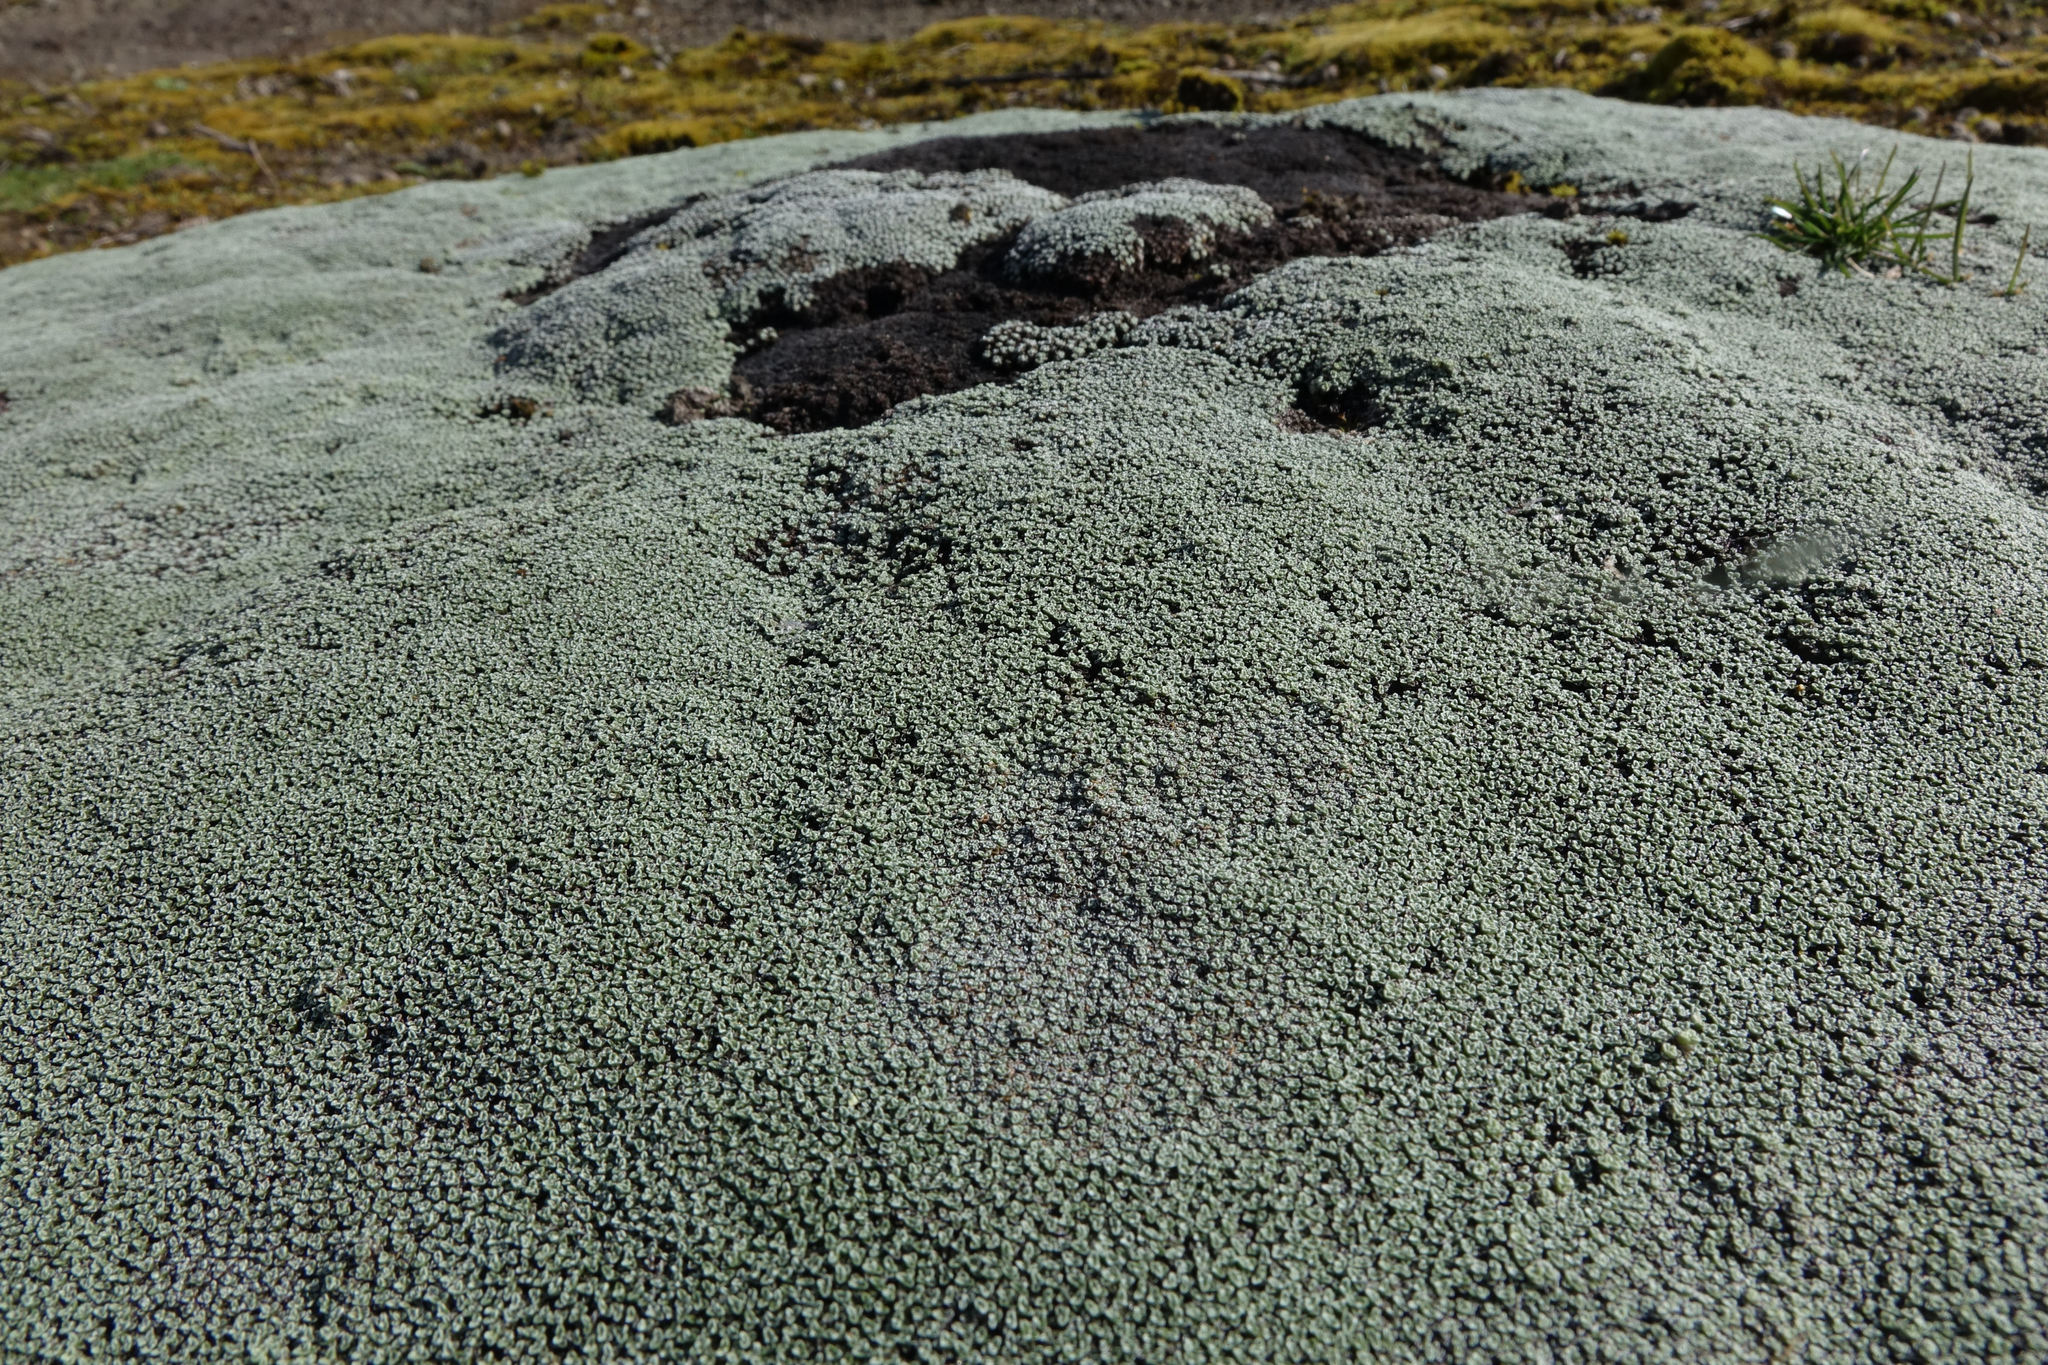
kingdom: Plantae
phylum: Tracheophyta
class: Magnoliopsida
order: Asterales
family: Asteraceae
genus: Raoulia
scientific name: Raoulia australis
